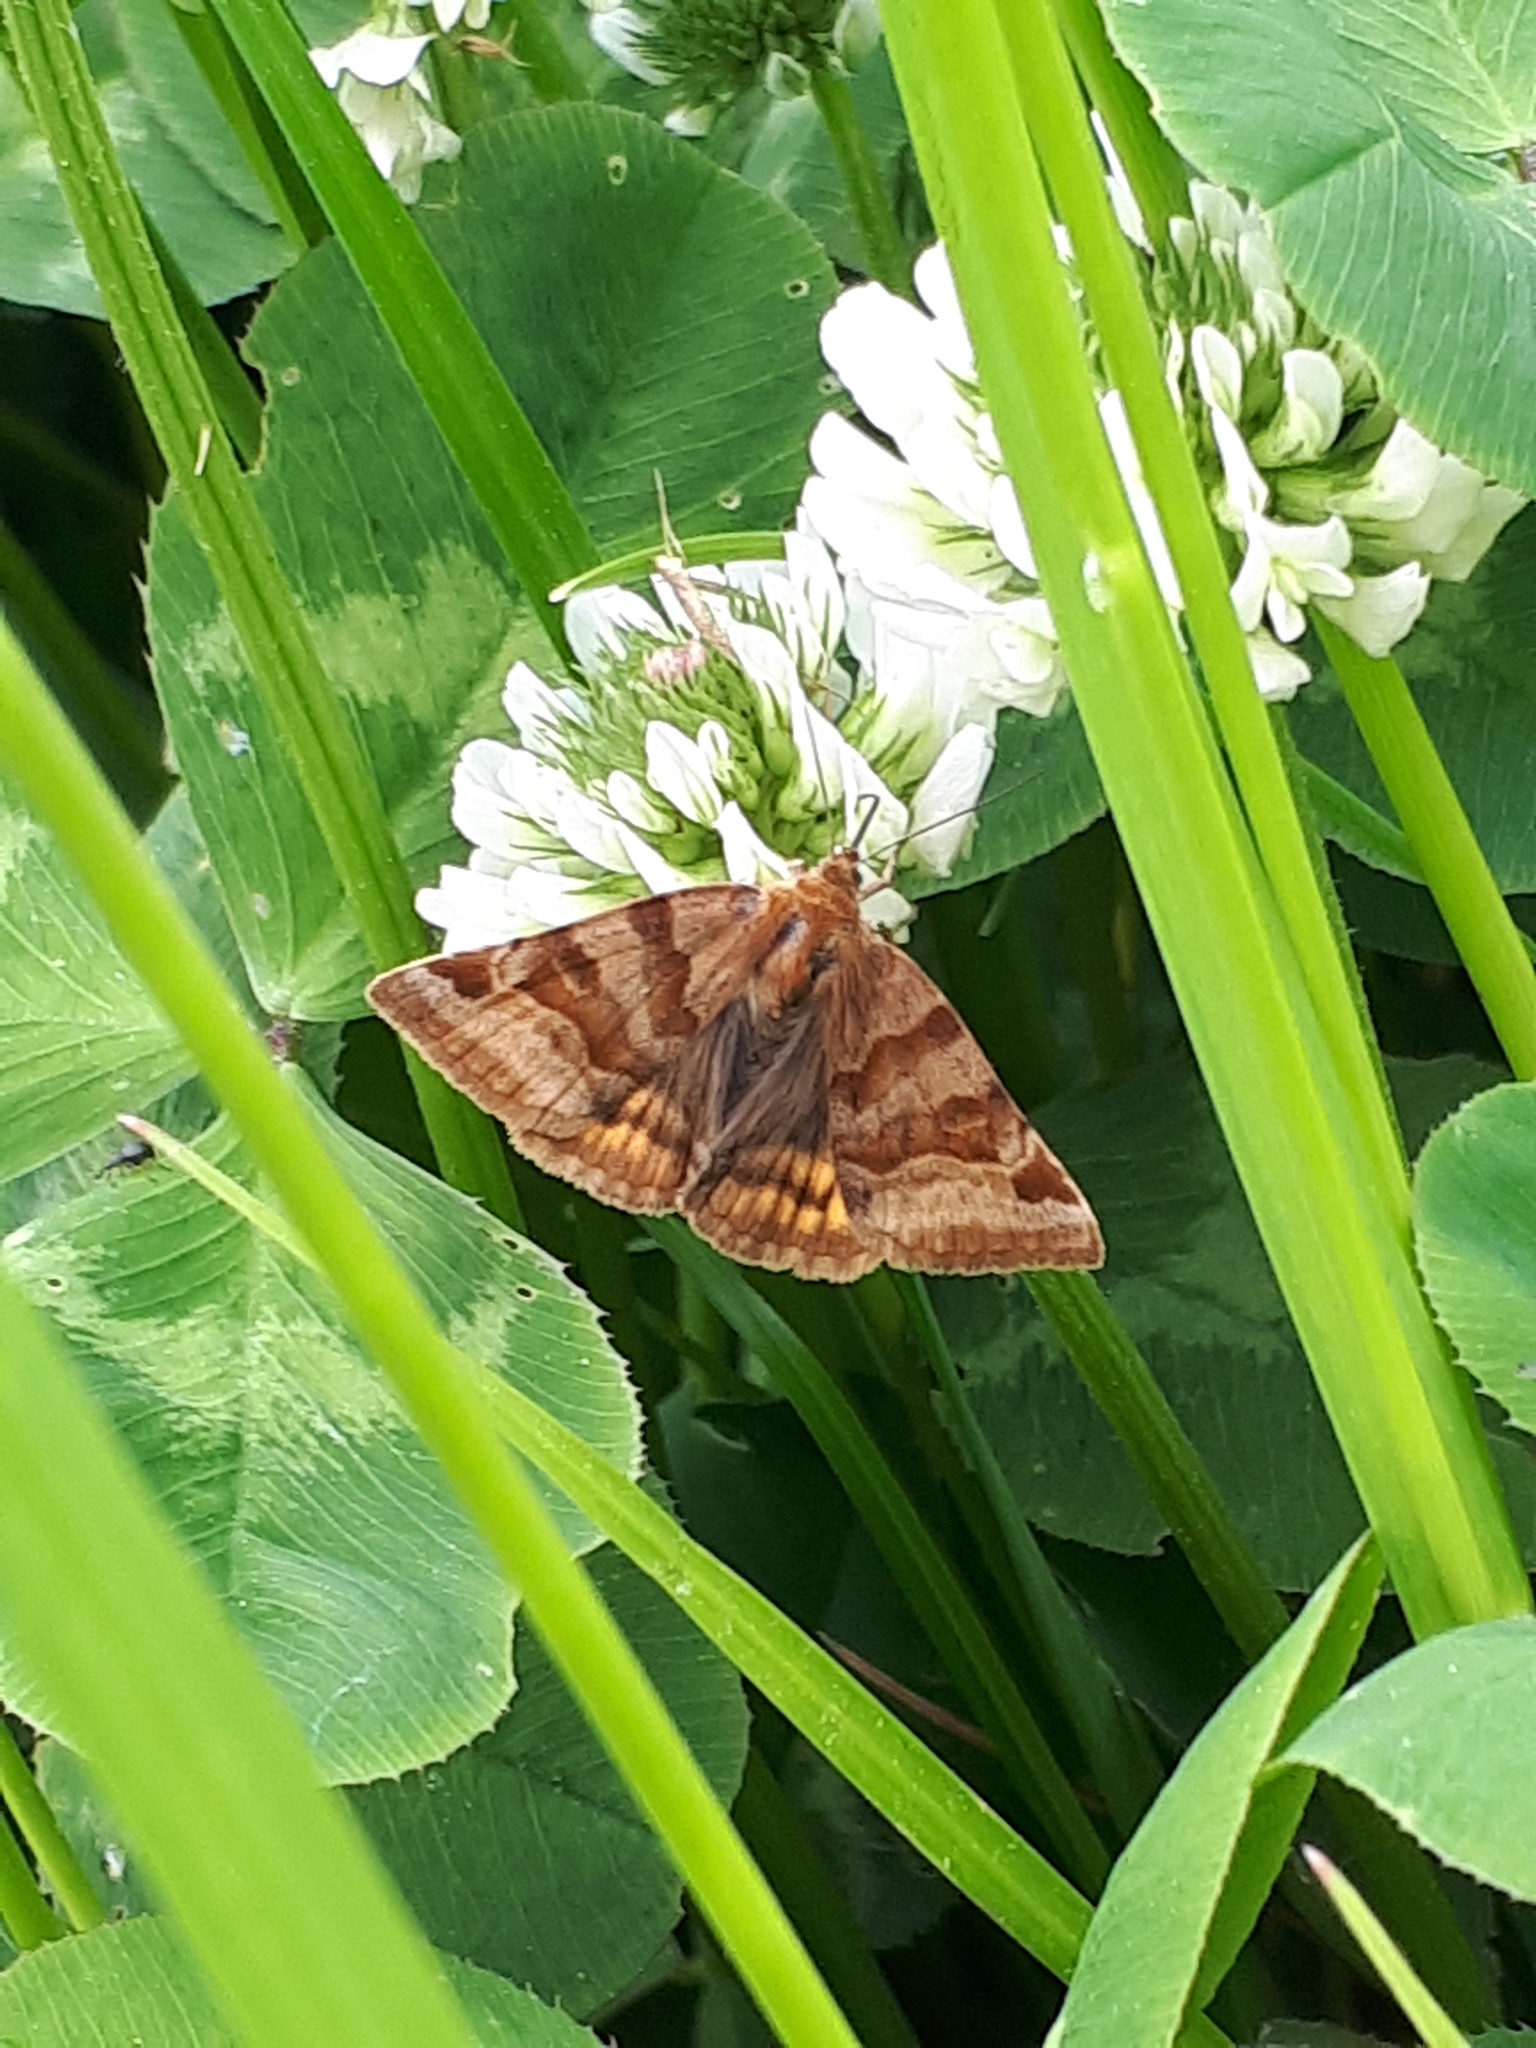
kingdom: Animalia
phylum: Arthropoda
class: Insecta
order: Lepidoptera
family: Erebidae
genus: Euclidia
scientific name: Euclidia glyphica
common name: Burnet companion
